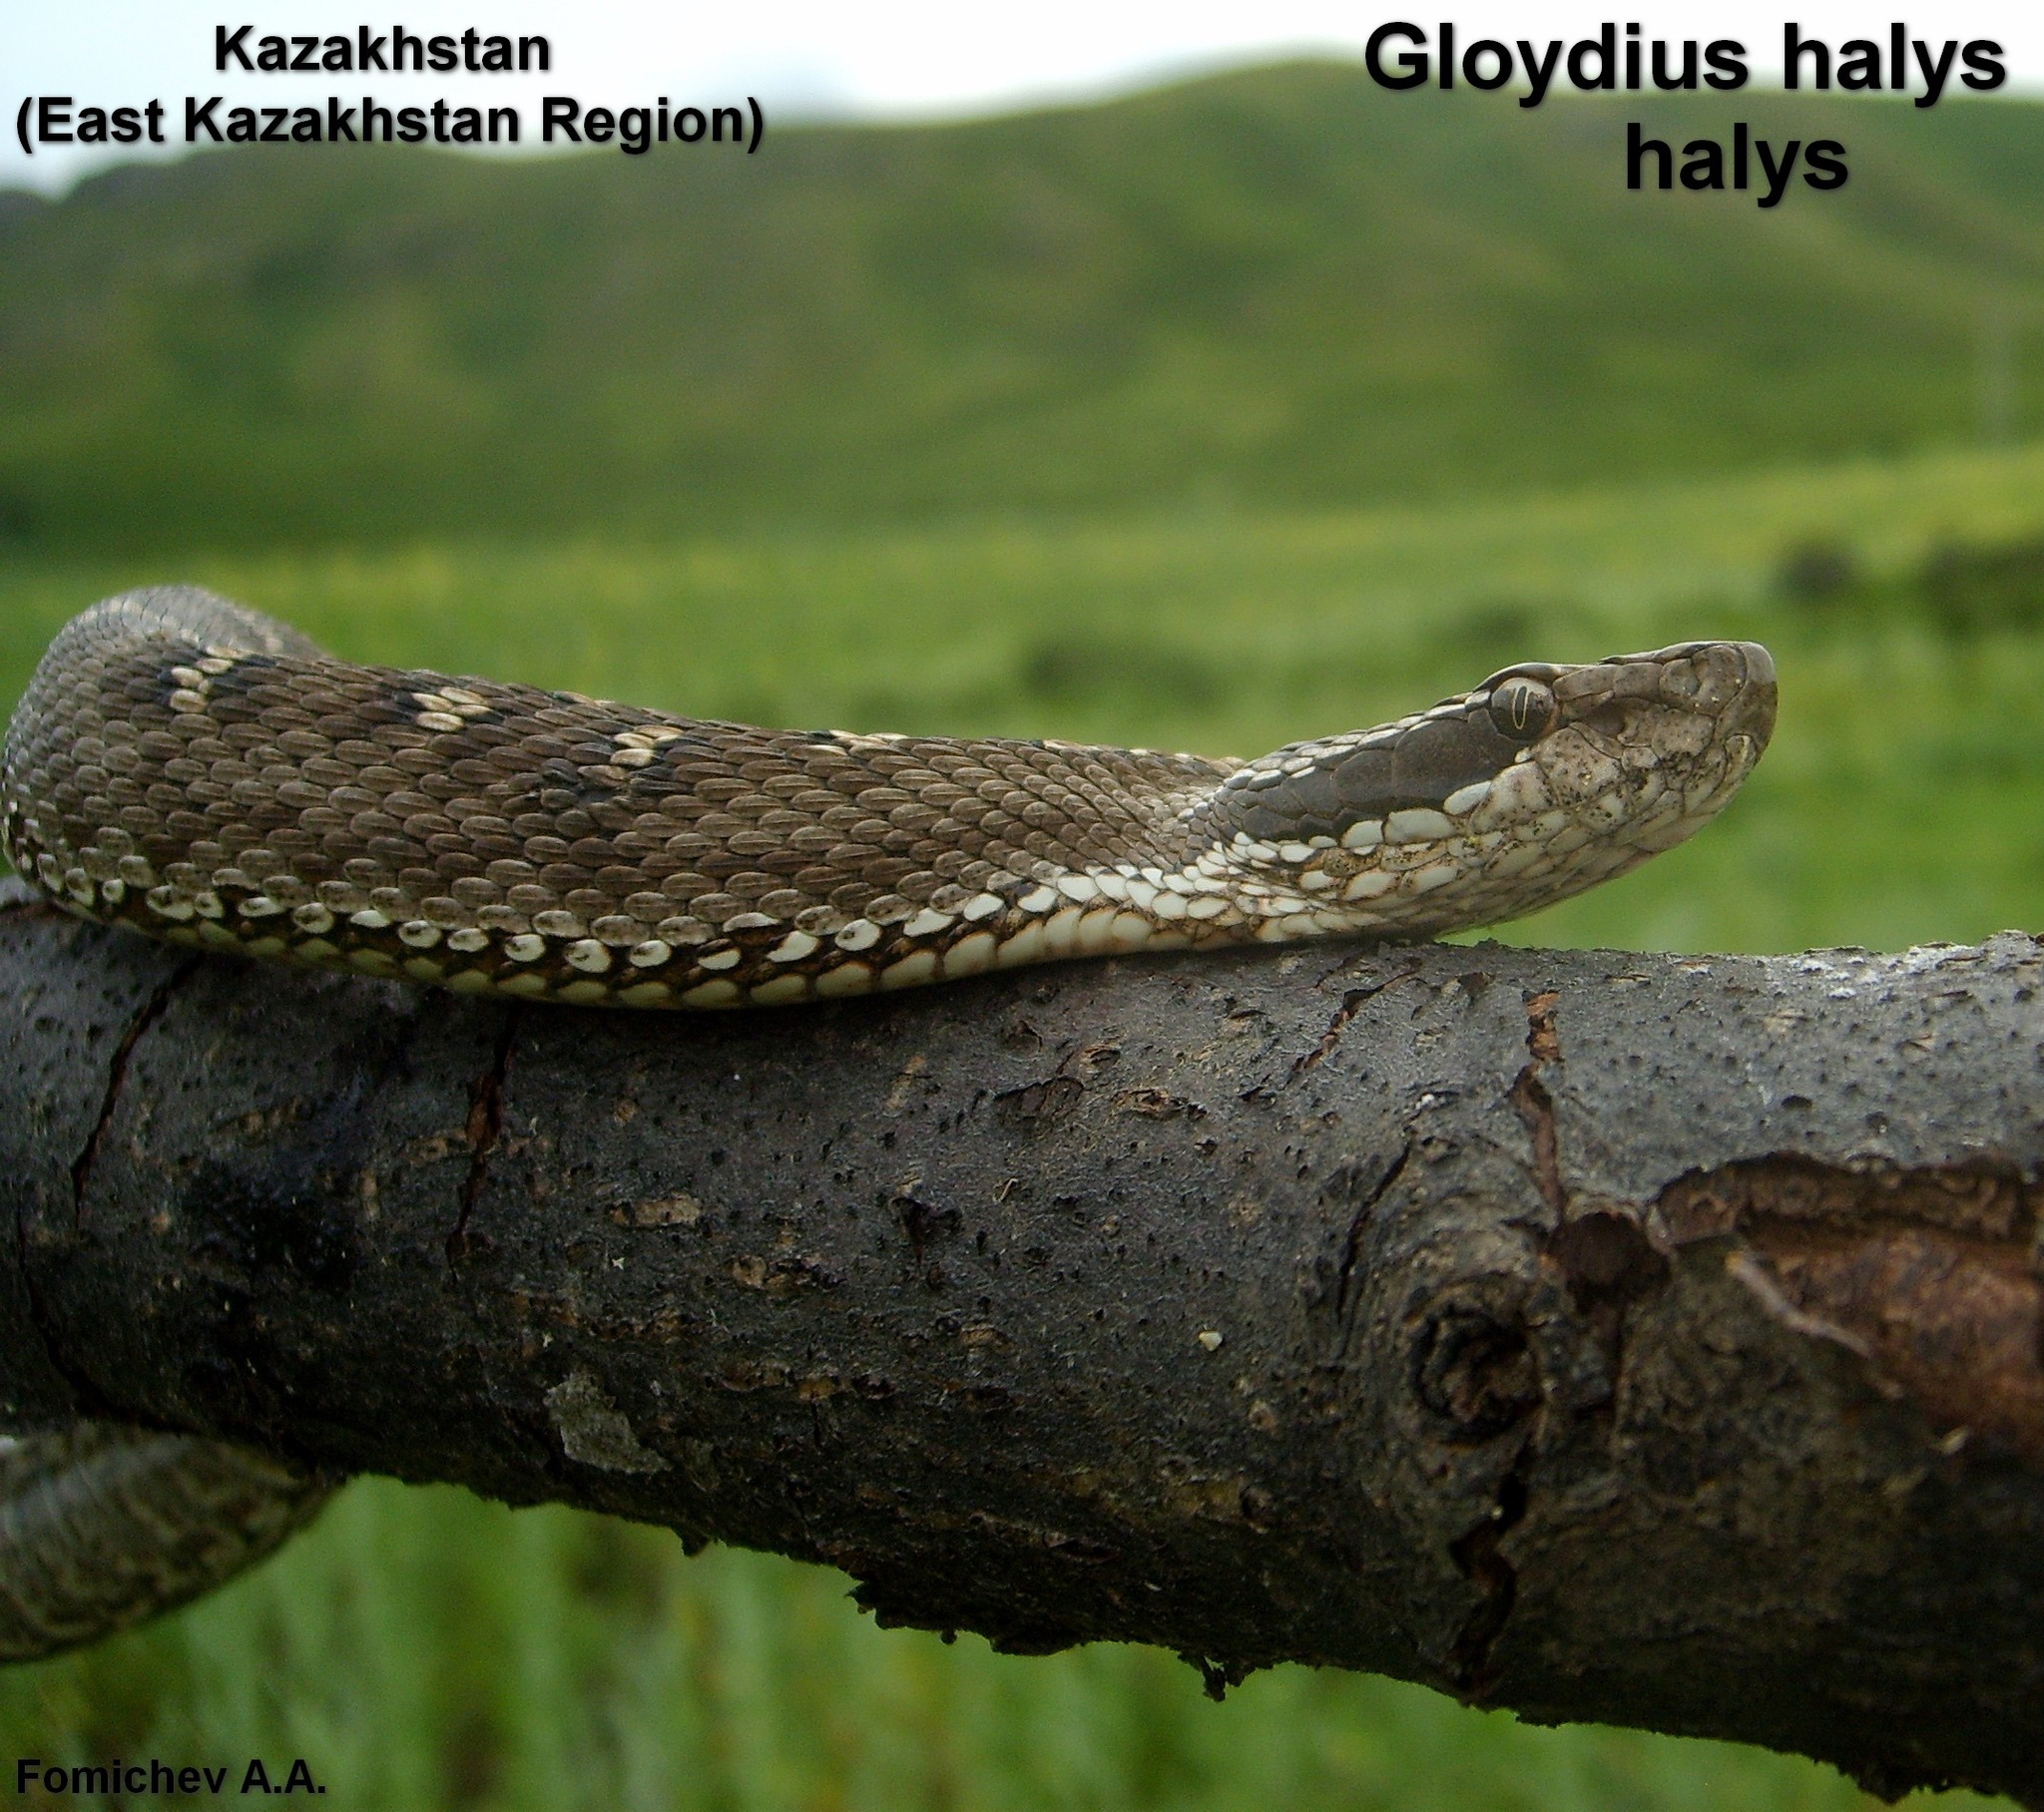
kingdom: Animalia
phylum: Chordata
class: Squamata
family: Viperidae
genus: Gloydius
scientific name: Gloydius halys
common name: Halys pit viper
